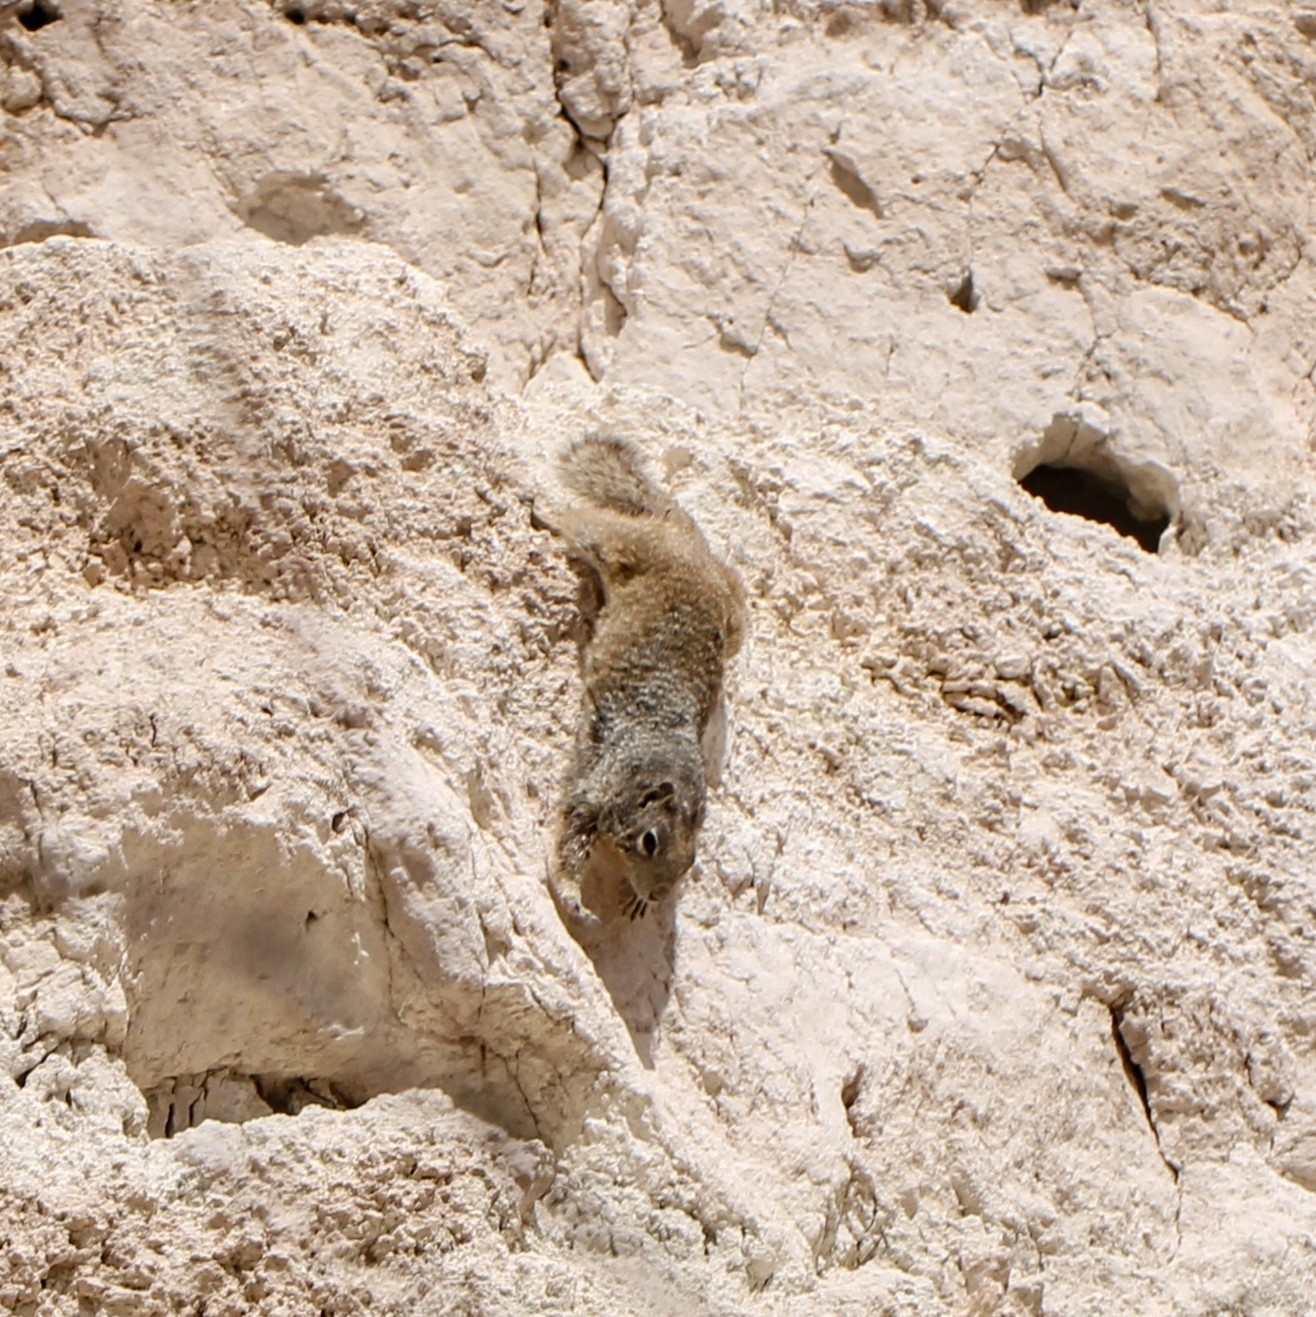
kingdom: Animalia
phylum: Chordata
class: Mammalia
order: Rodentia
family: Sciuridae
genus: Otospermophilus
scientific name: Otospermophilus variegatus
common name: Rock squirrel
